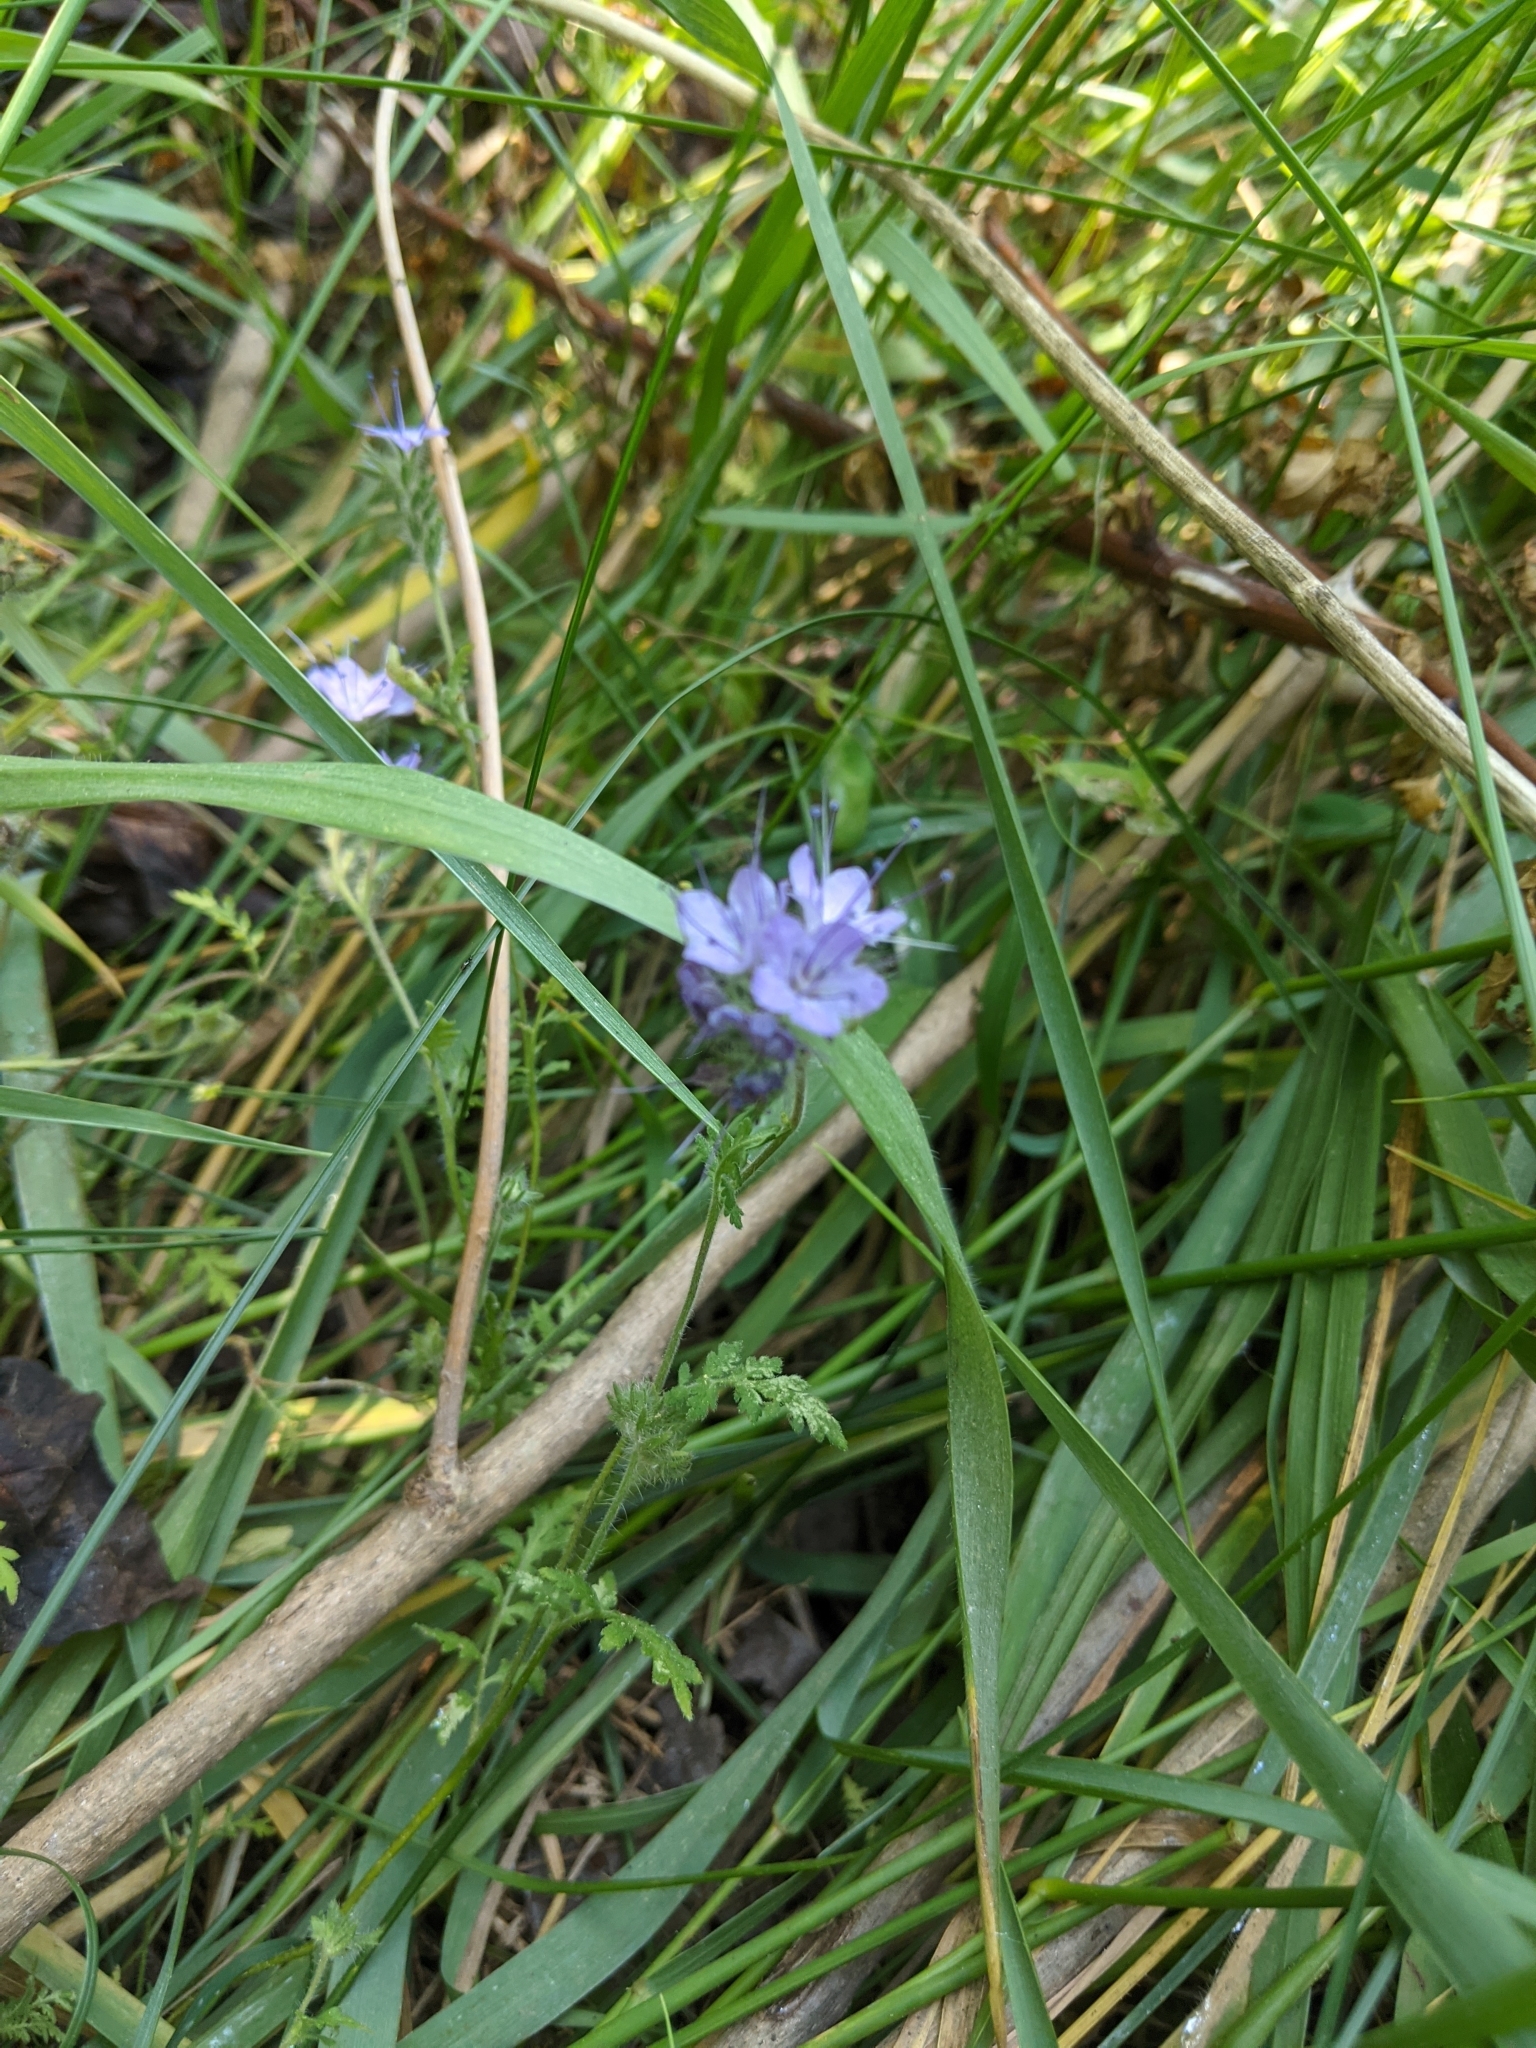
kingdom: Plantae
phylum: Tracheophyta
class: Magnoliopsida
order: Boraginales
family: Hydrophyllaceae
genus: Phacelia
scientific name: Phacelia tanacetifolia
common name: Phacelia
